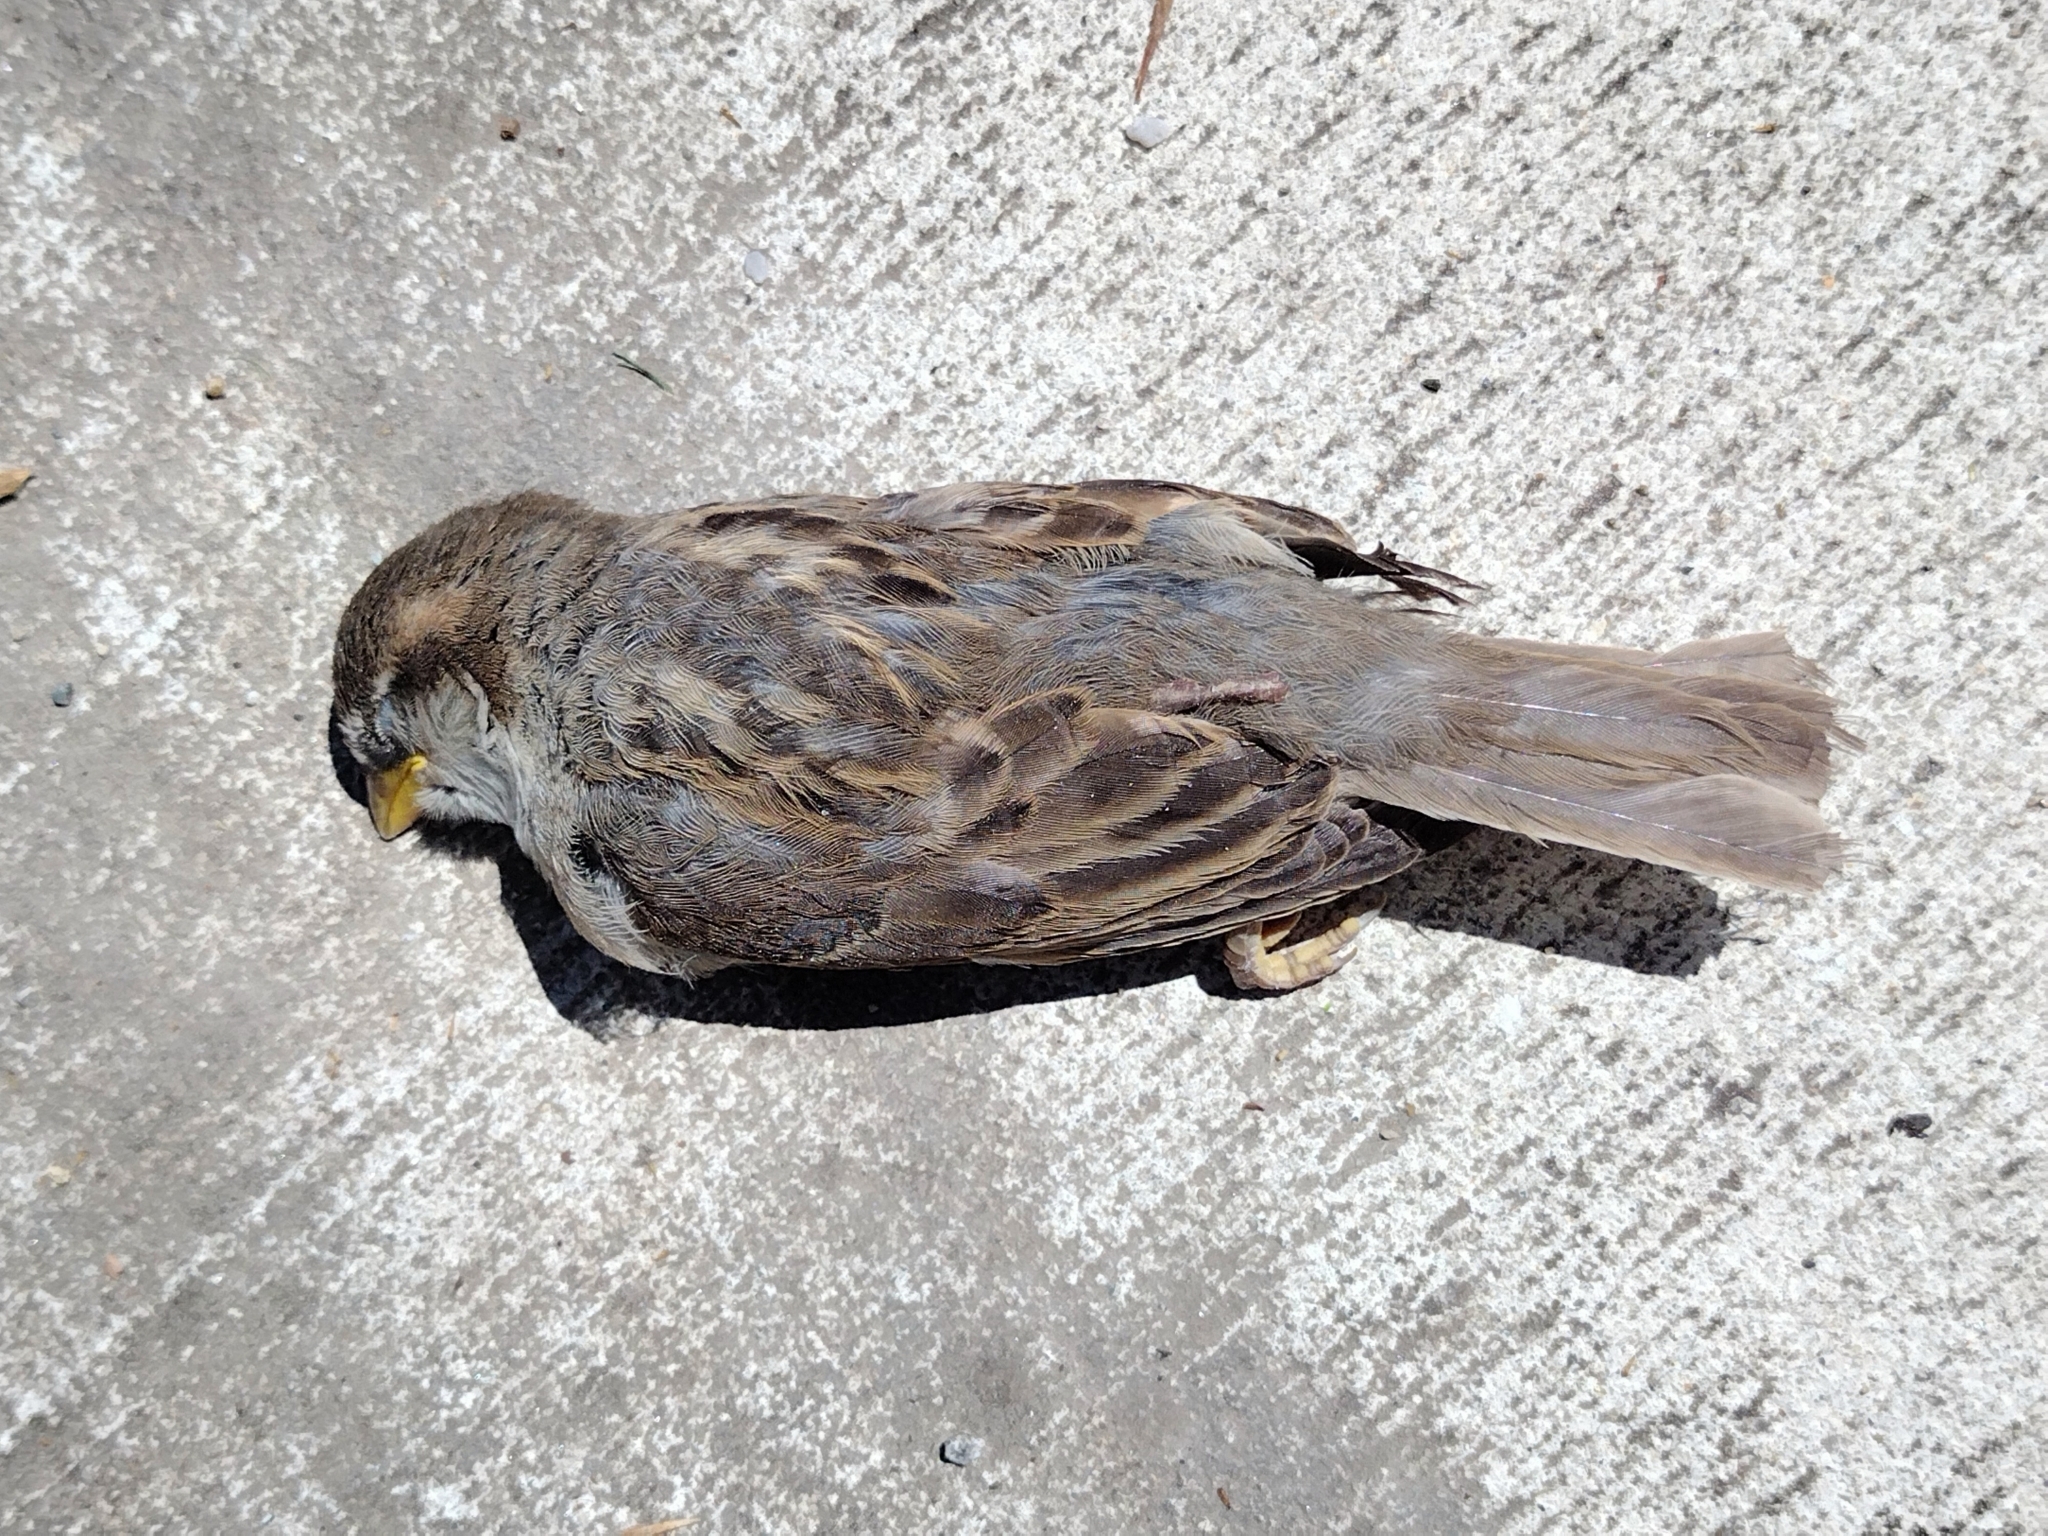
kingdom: Animalia
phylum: Chordata
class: Aves
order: Passeriformes
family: Passeridae
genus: Passer
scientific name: Passer domesticus
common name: House sparrow
